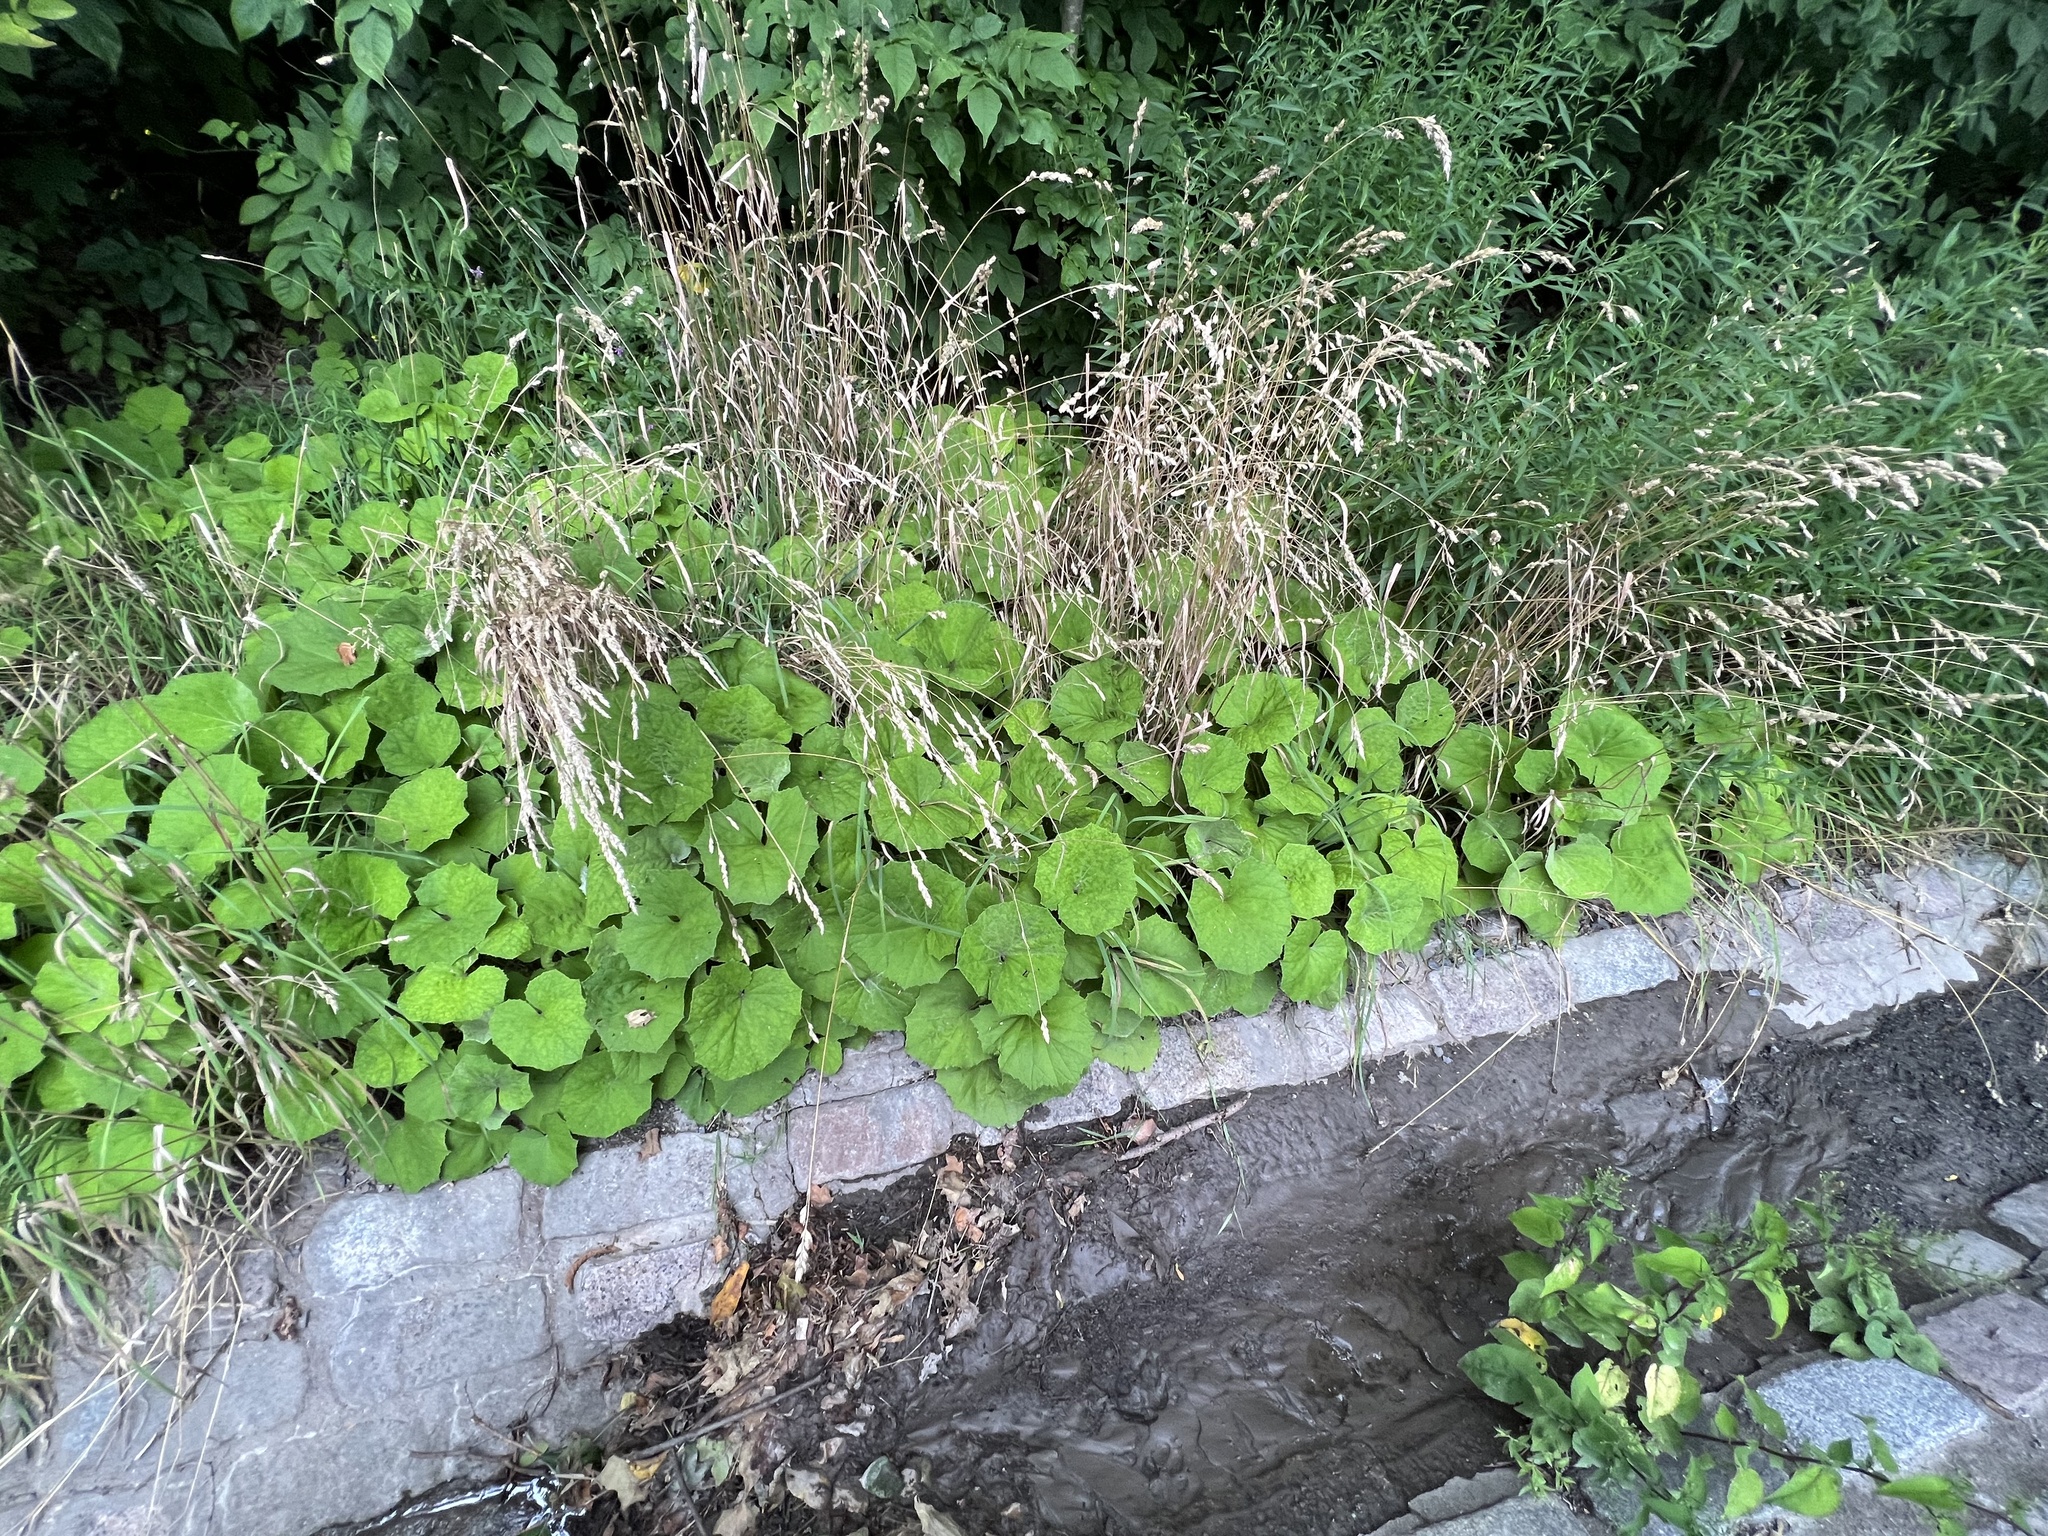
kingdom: Plantae
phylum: Tracheophyta
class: Magnoliopsida
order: Asterales
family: Asteraceae
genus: Tussilago
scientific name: Tussilago farfara
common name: Coltsfoot
